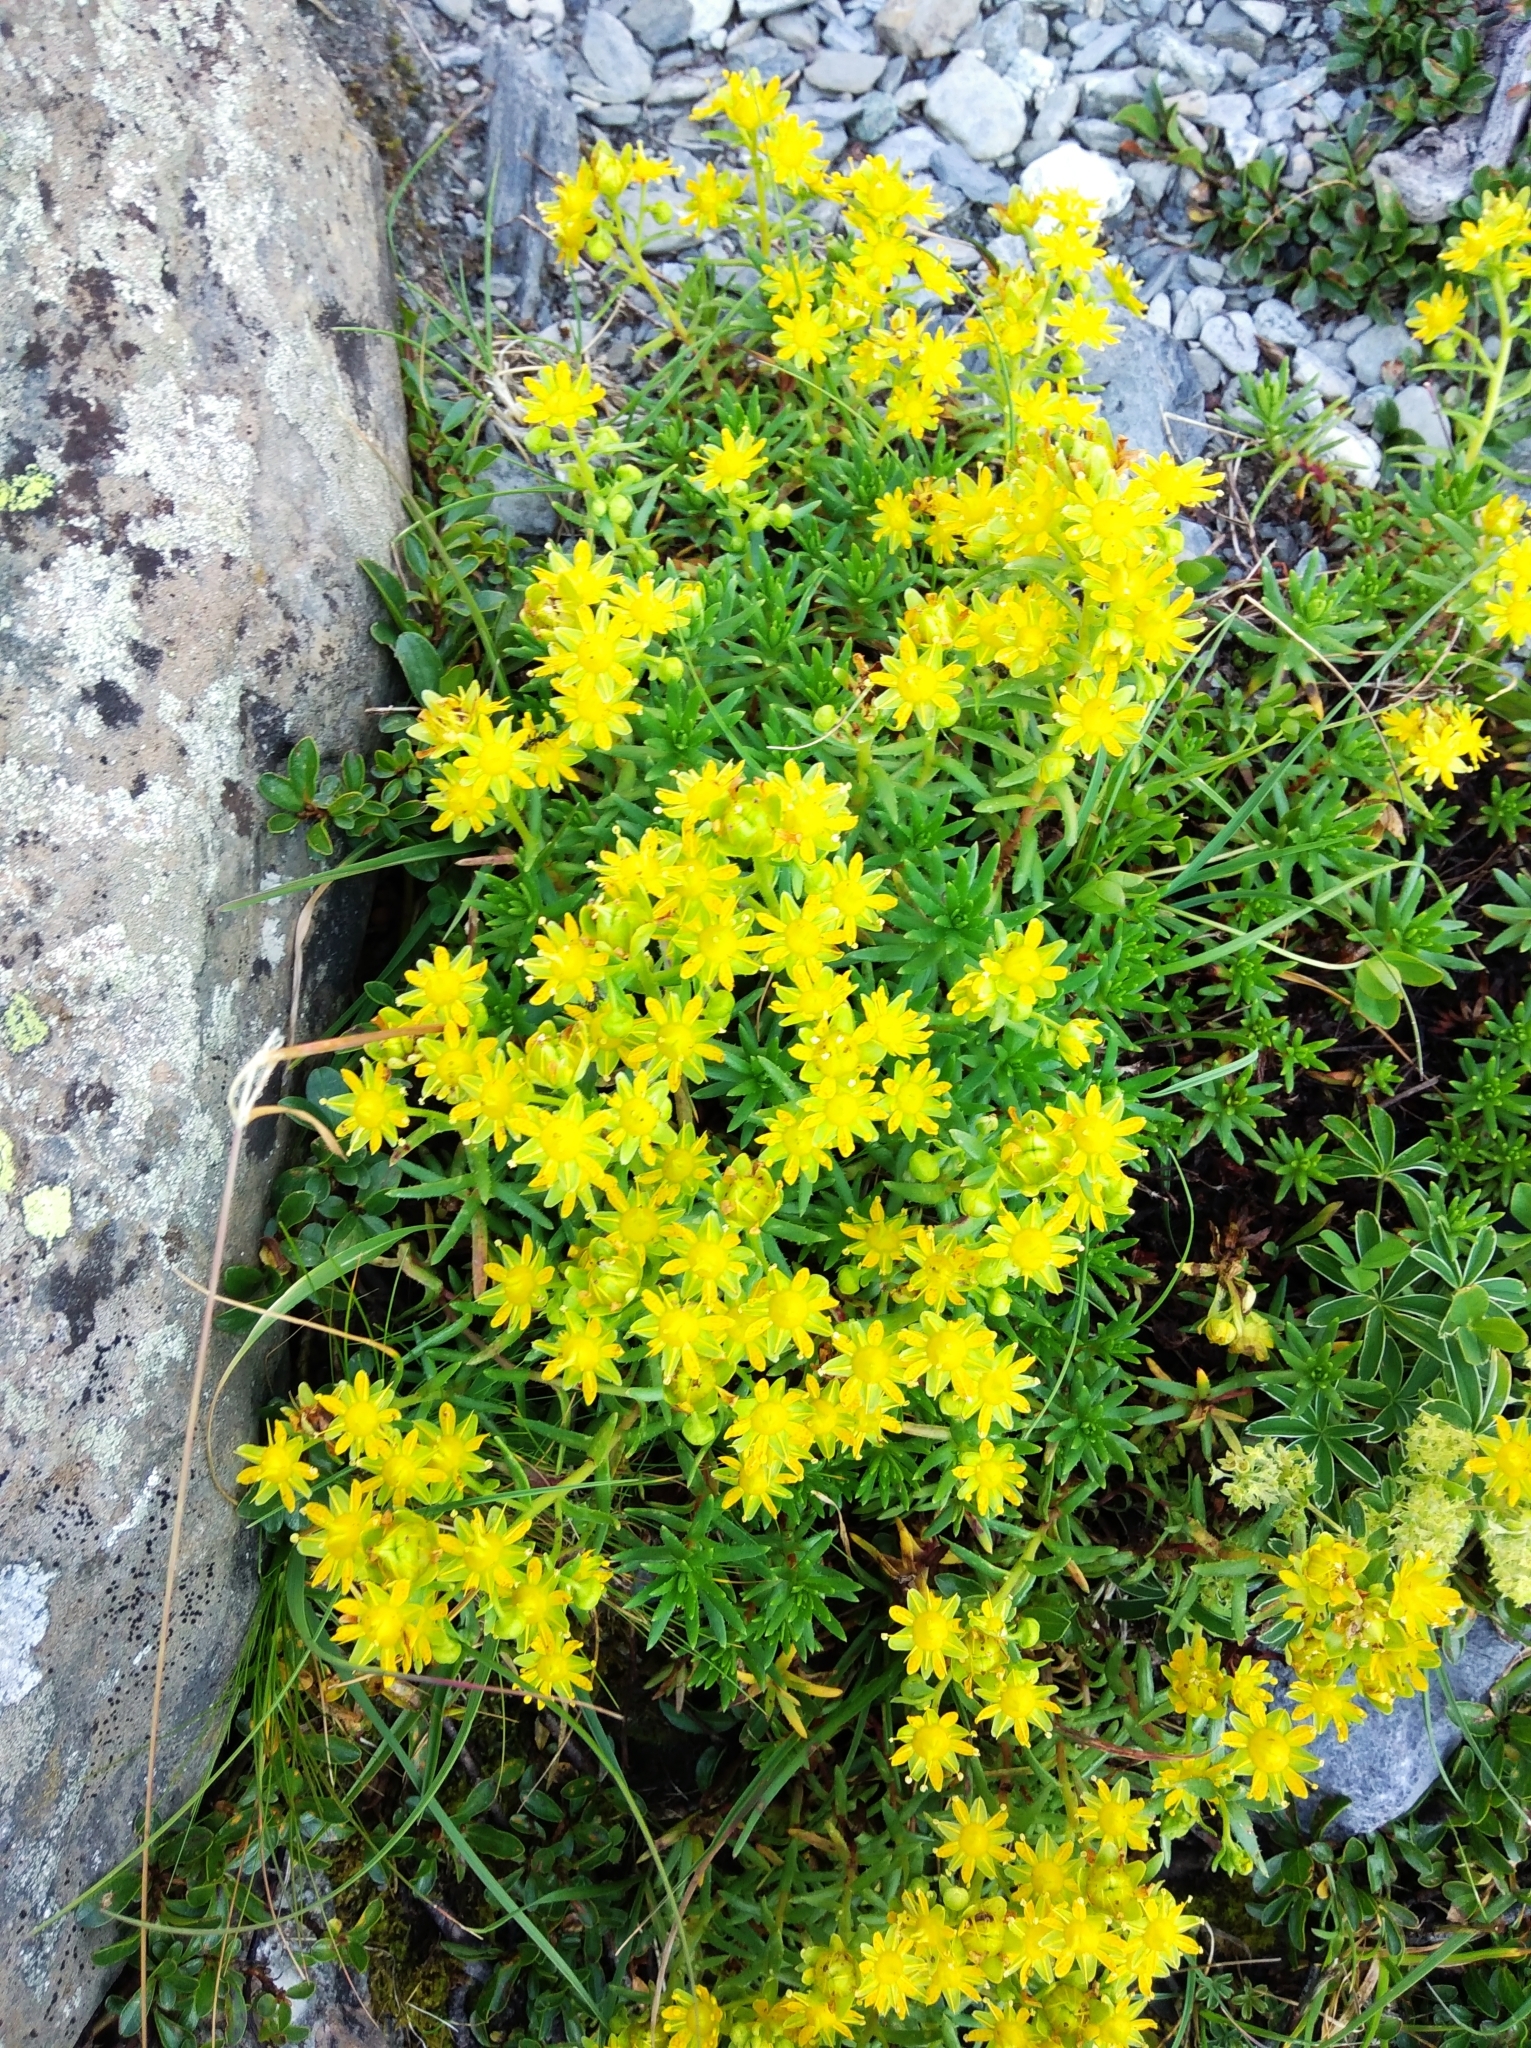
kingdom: Plantae
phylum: Tracheophyta
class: Magnoliopsida
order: Saxifragales
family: Saxifragaceae
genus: Saxifraga
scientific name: Saxifraga aizoides
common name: Yellow mountain saxifrage
